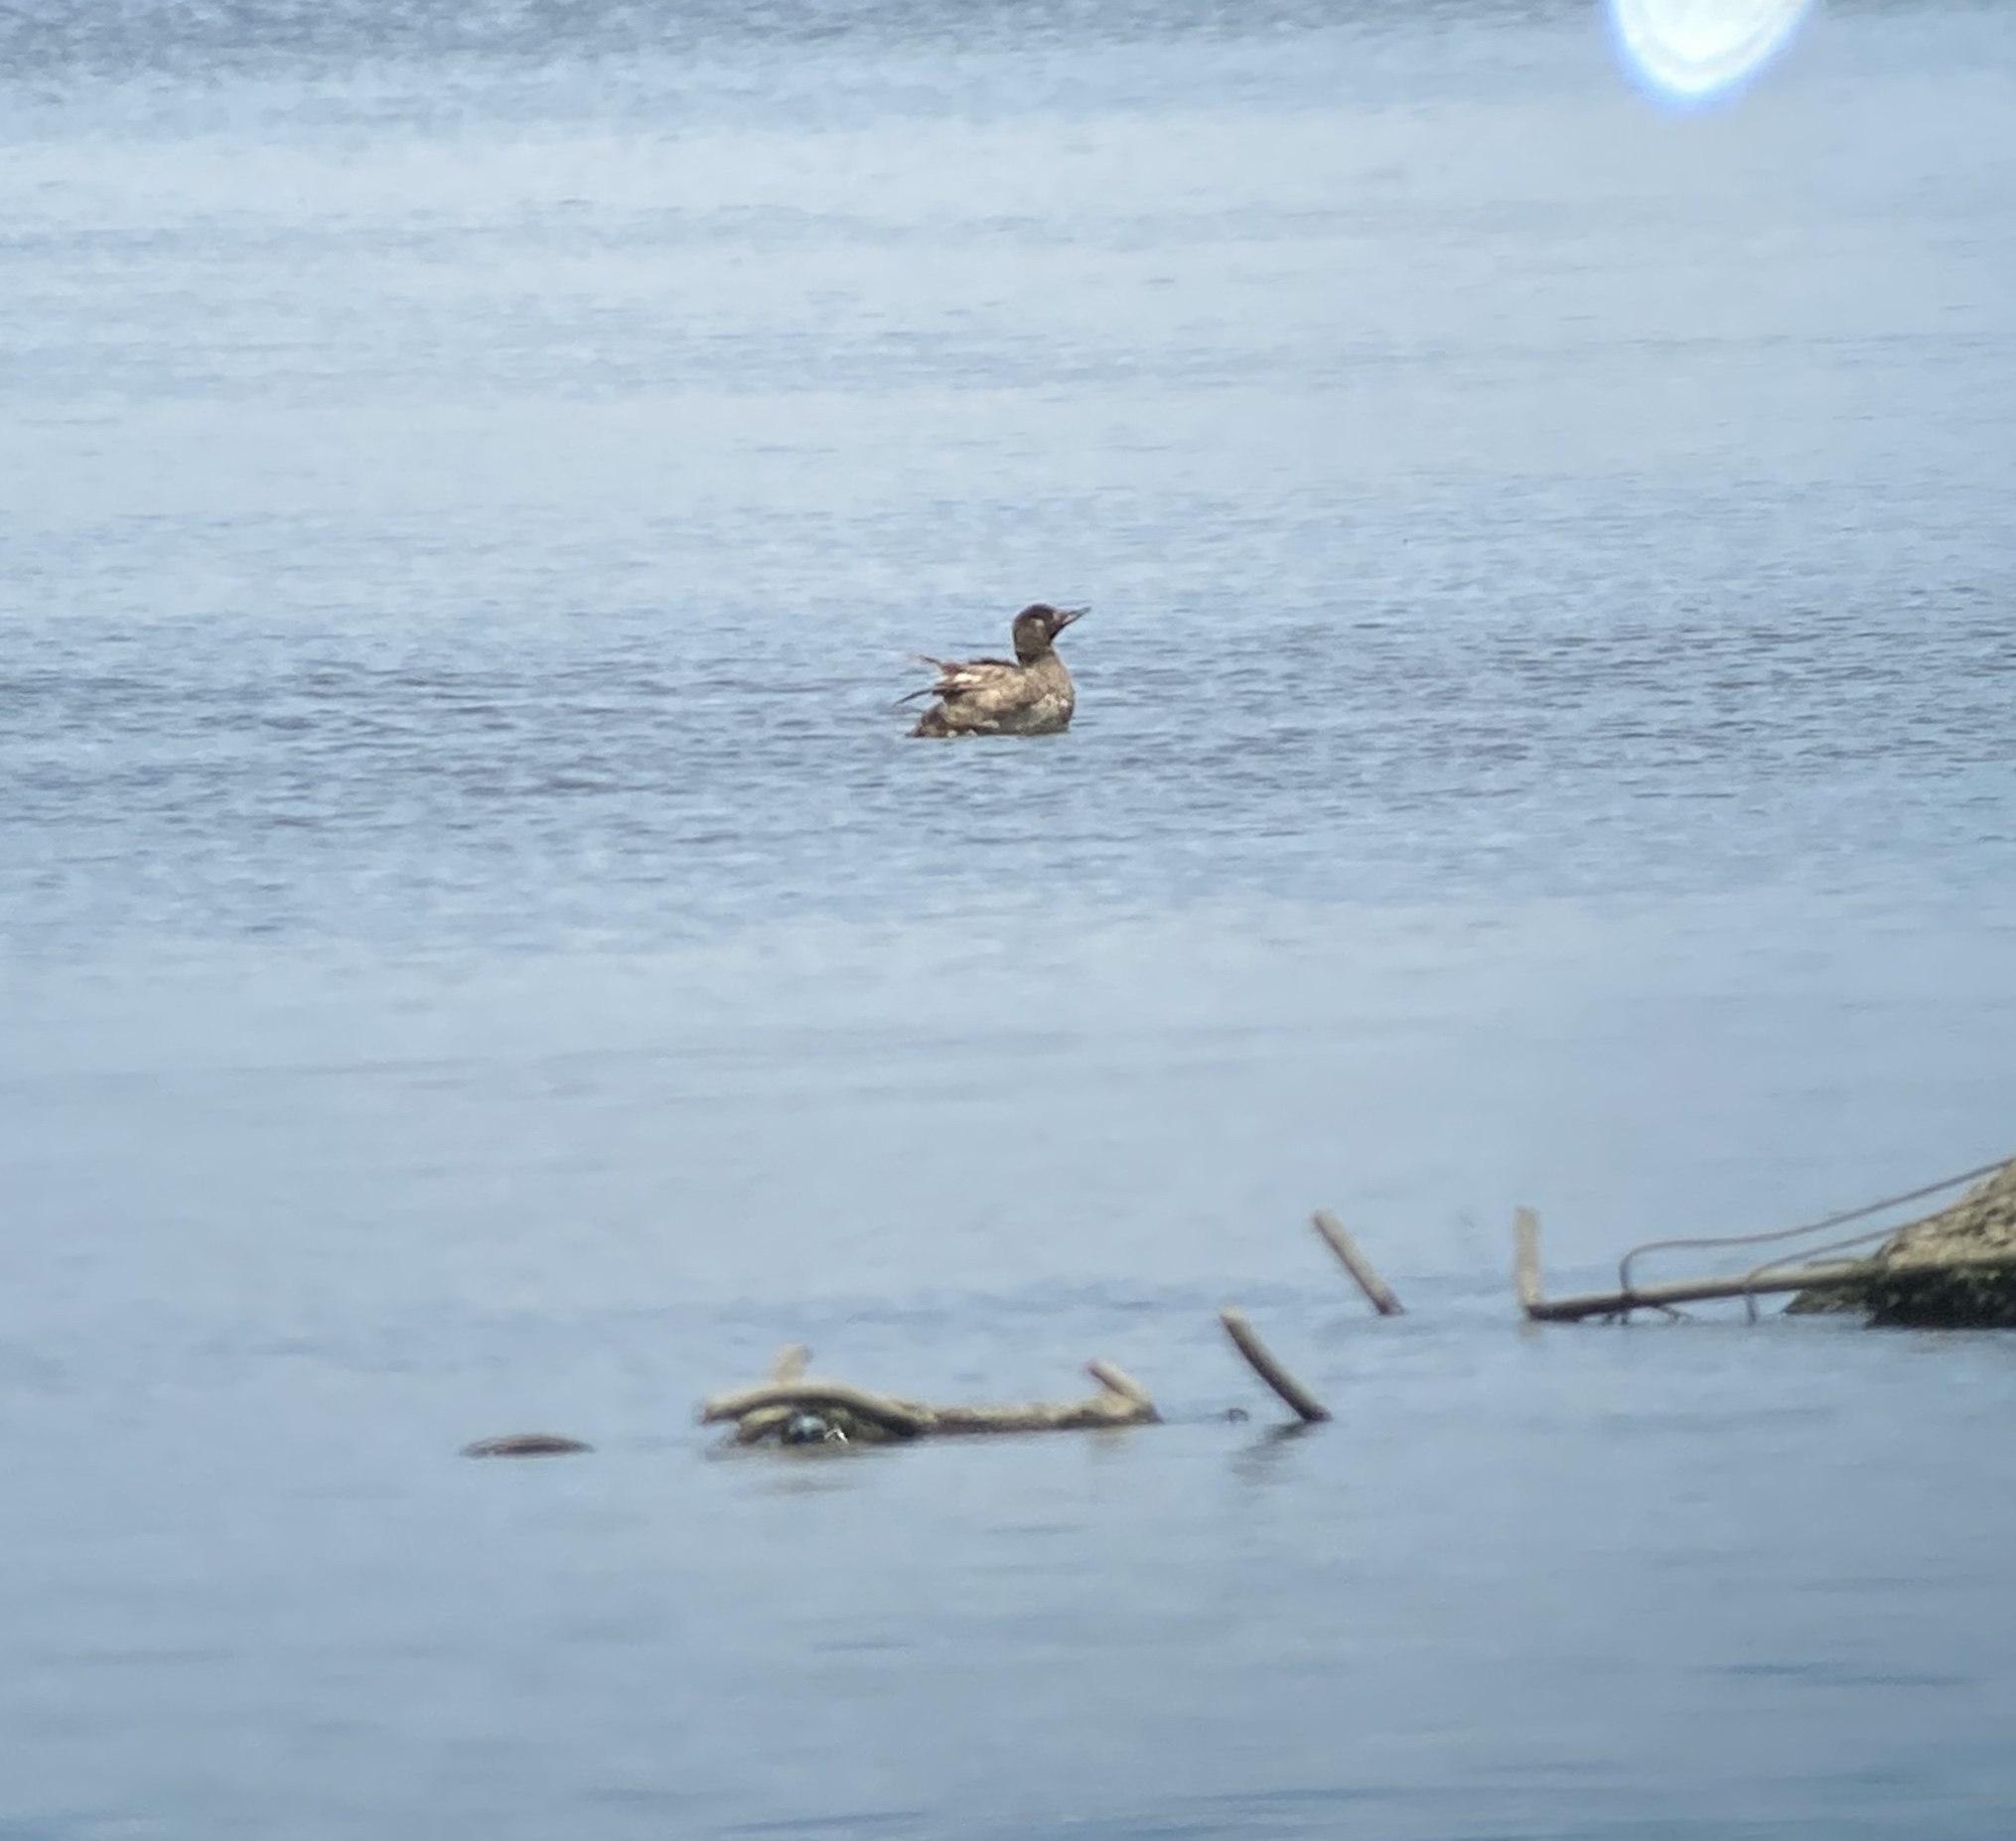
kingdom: Animalia
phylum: Chordata
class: Aves
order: Anseriformes
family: Anatidae
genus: Melanitta
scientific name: Melanitta deglandi
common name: White-winged scoter
